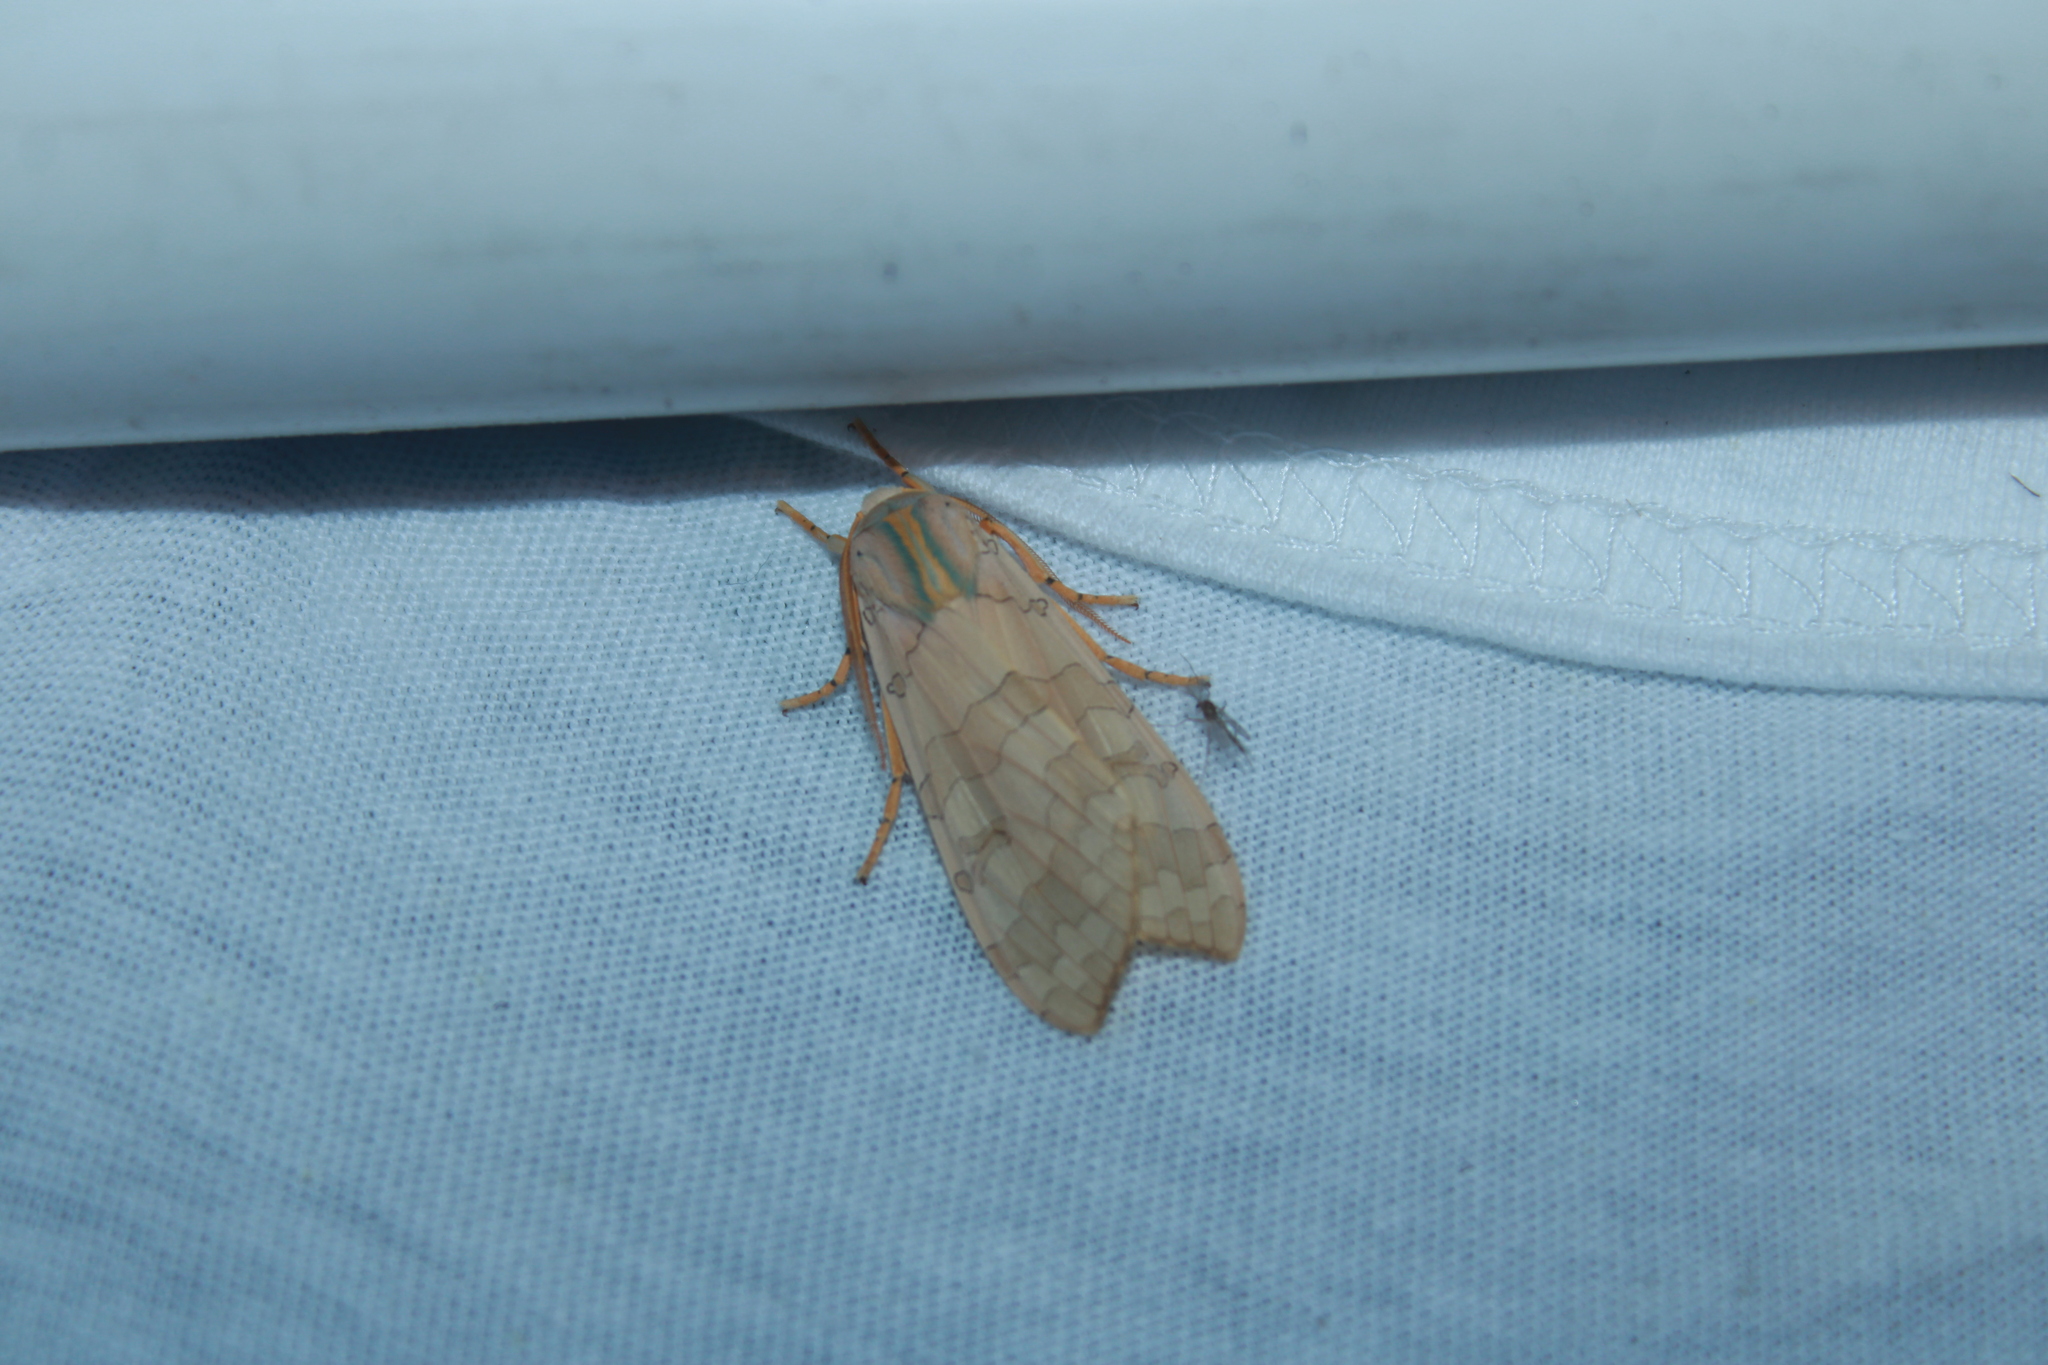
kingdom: Animalia
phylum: Arthropoda
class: Insecta
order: Lepidoptera
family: Erebidae
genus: Halysidota
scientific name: Halysidota
